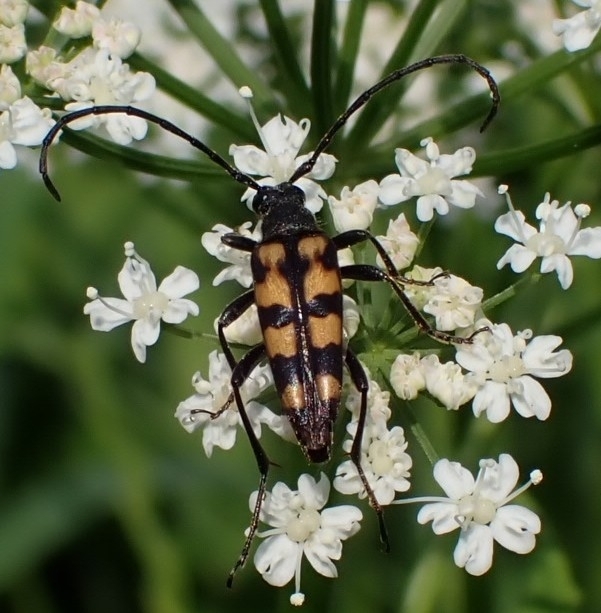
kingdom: Animalia
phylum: Arthropoda
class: Insecta
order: Coleoptera
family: Cerambycidae
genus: Leptura
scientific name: Leptura quadrifasciata
